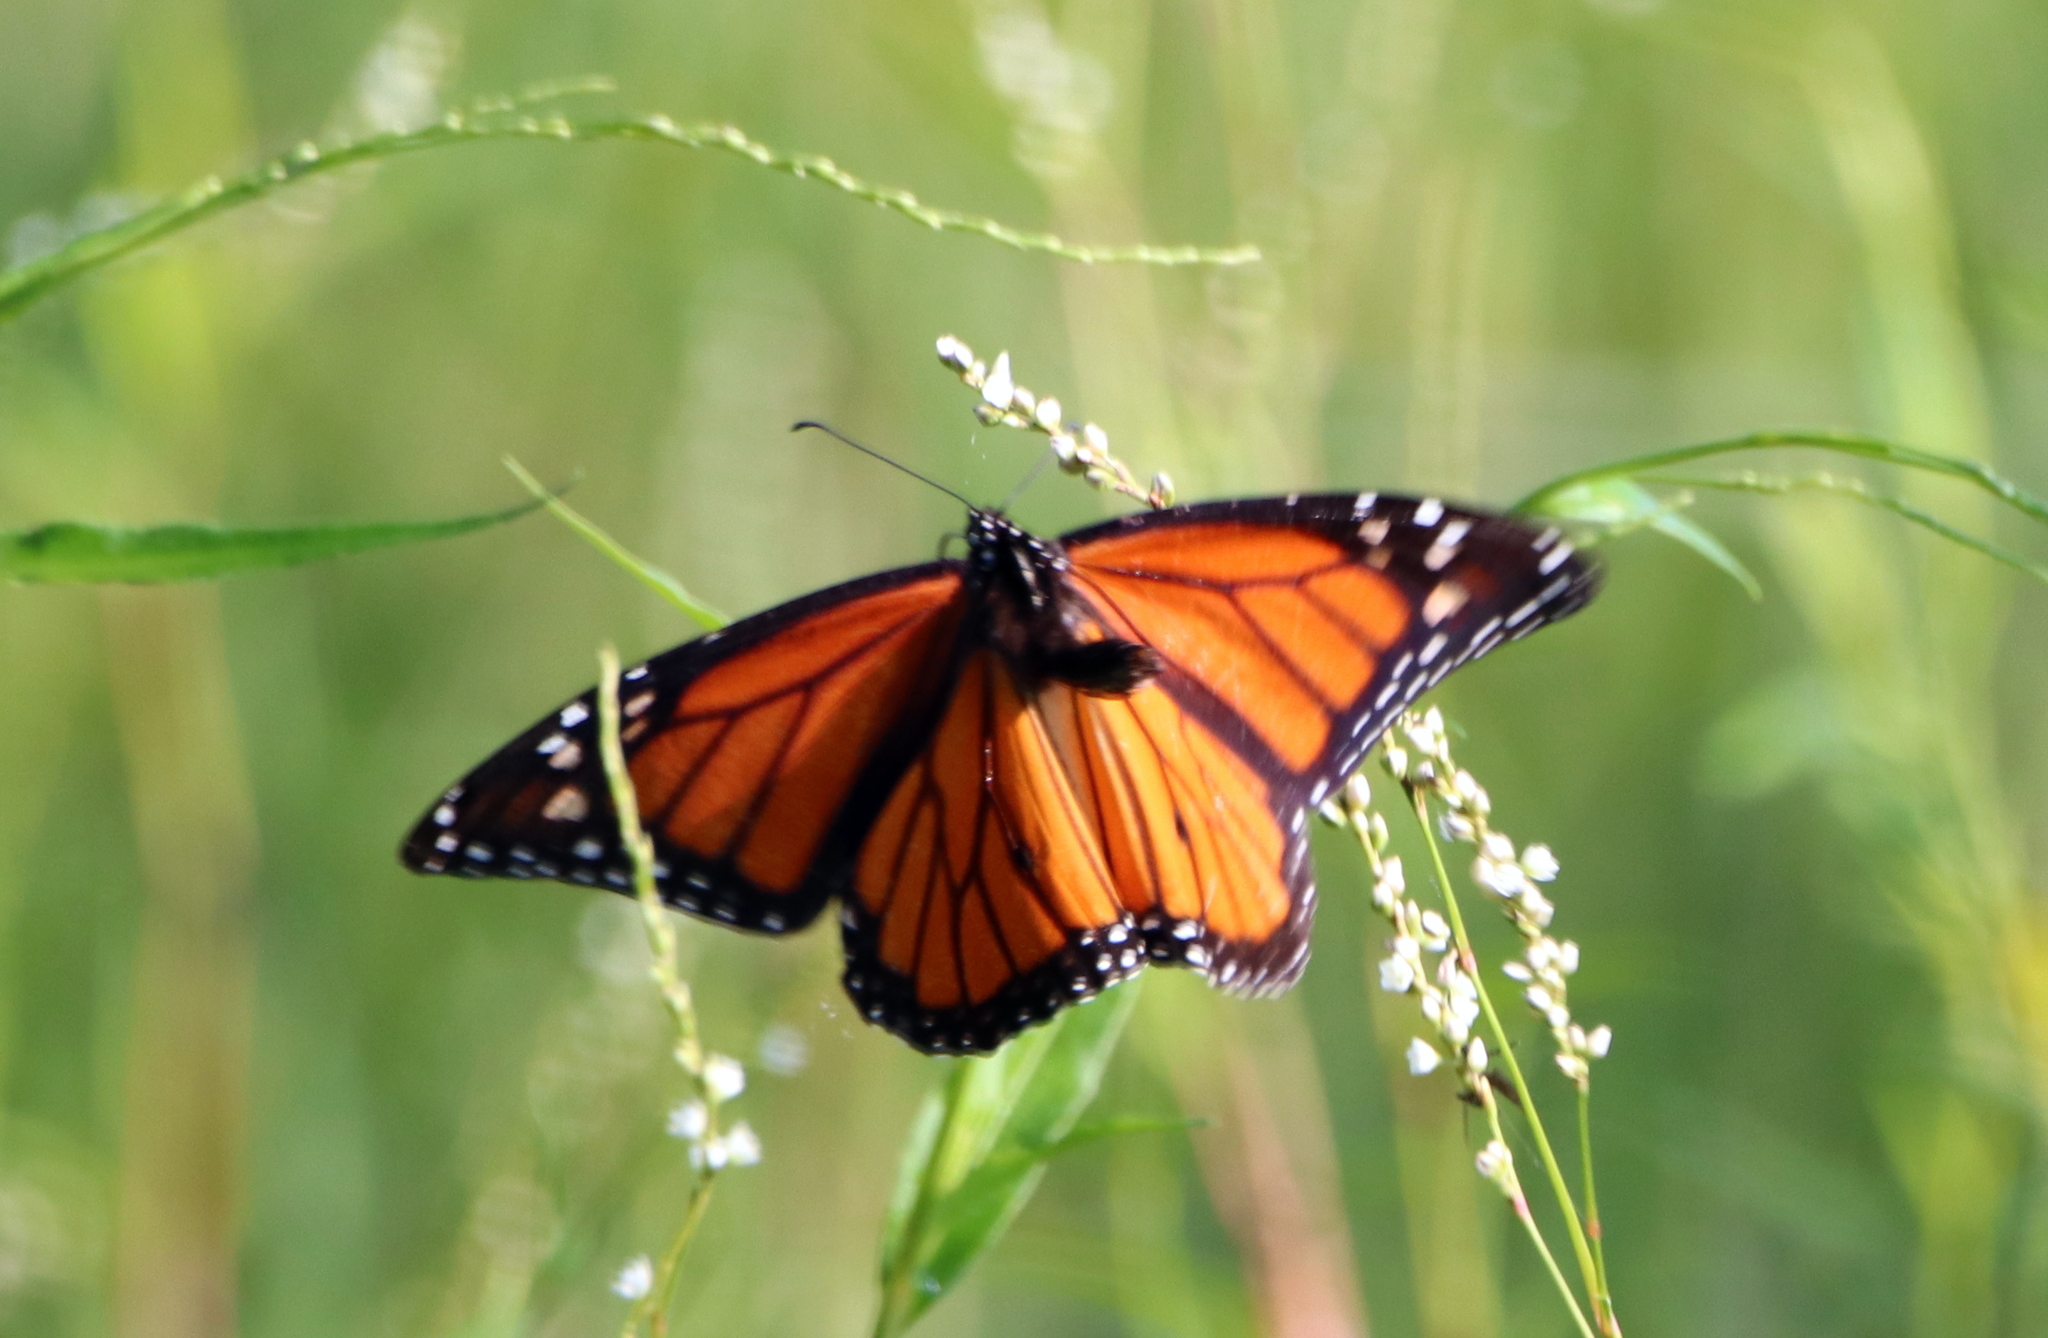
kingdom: Animalia
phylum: Arthropoda
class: Insecta
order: Lepidoptera
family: Nymphalidae
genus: Danaus
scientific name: Danaus plexippus
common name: Monarch
